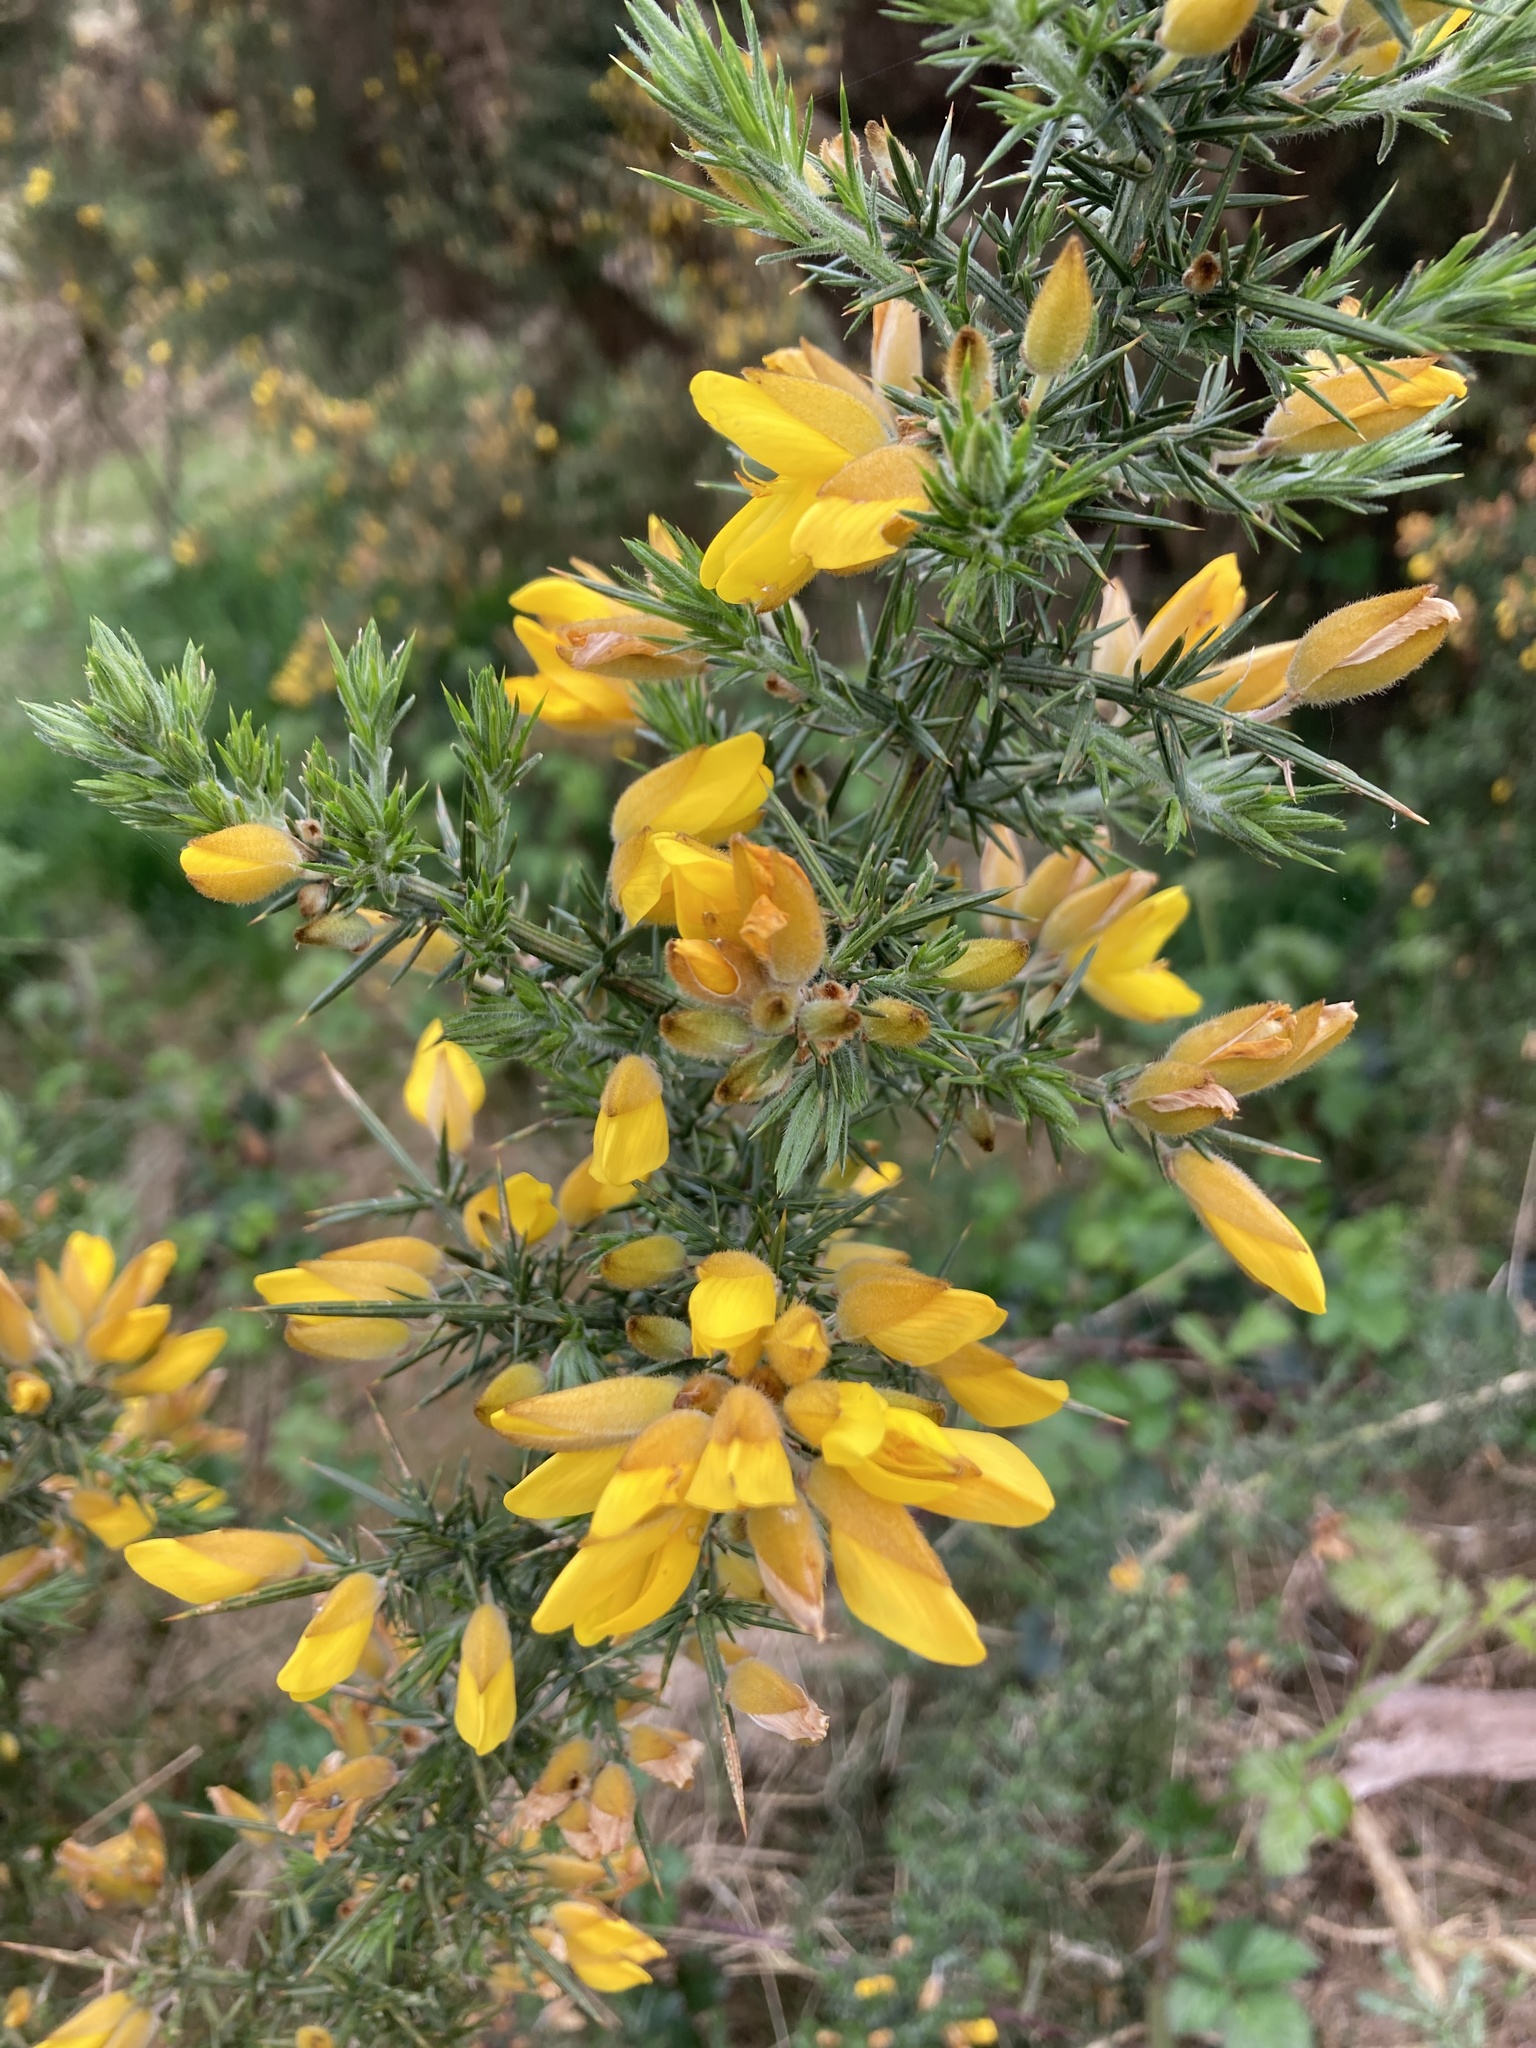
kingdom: Plantae
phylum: Tracheophyta
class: Magnoliopsida
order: Fabales
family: Fabaceae
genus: Ulex
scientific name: Ulex europaeus
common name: Common gorse
